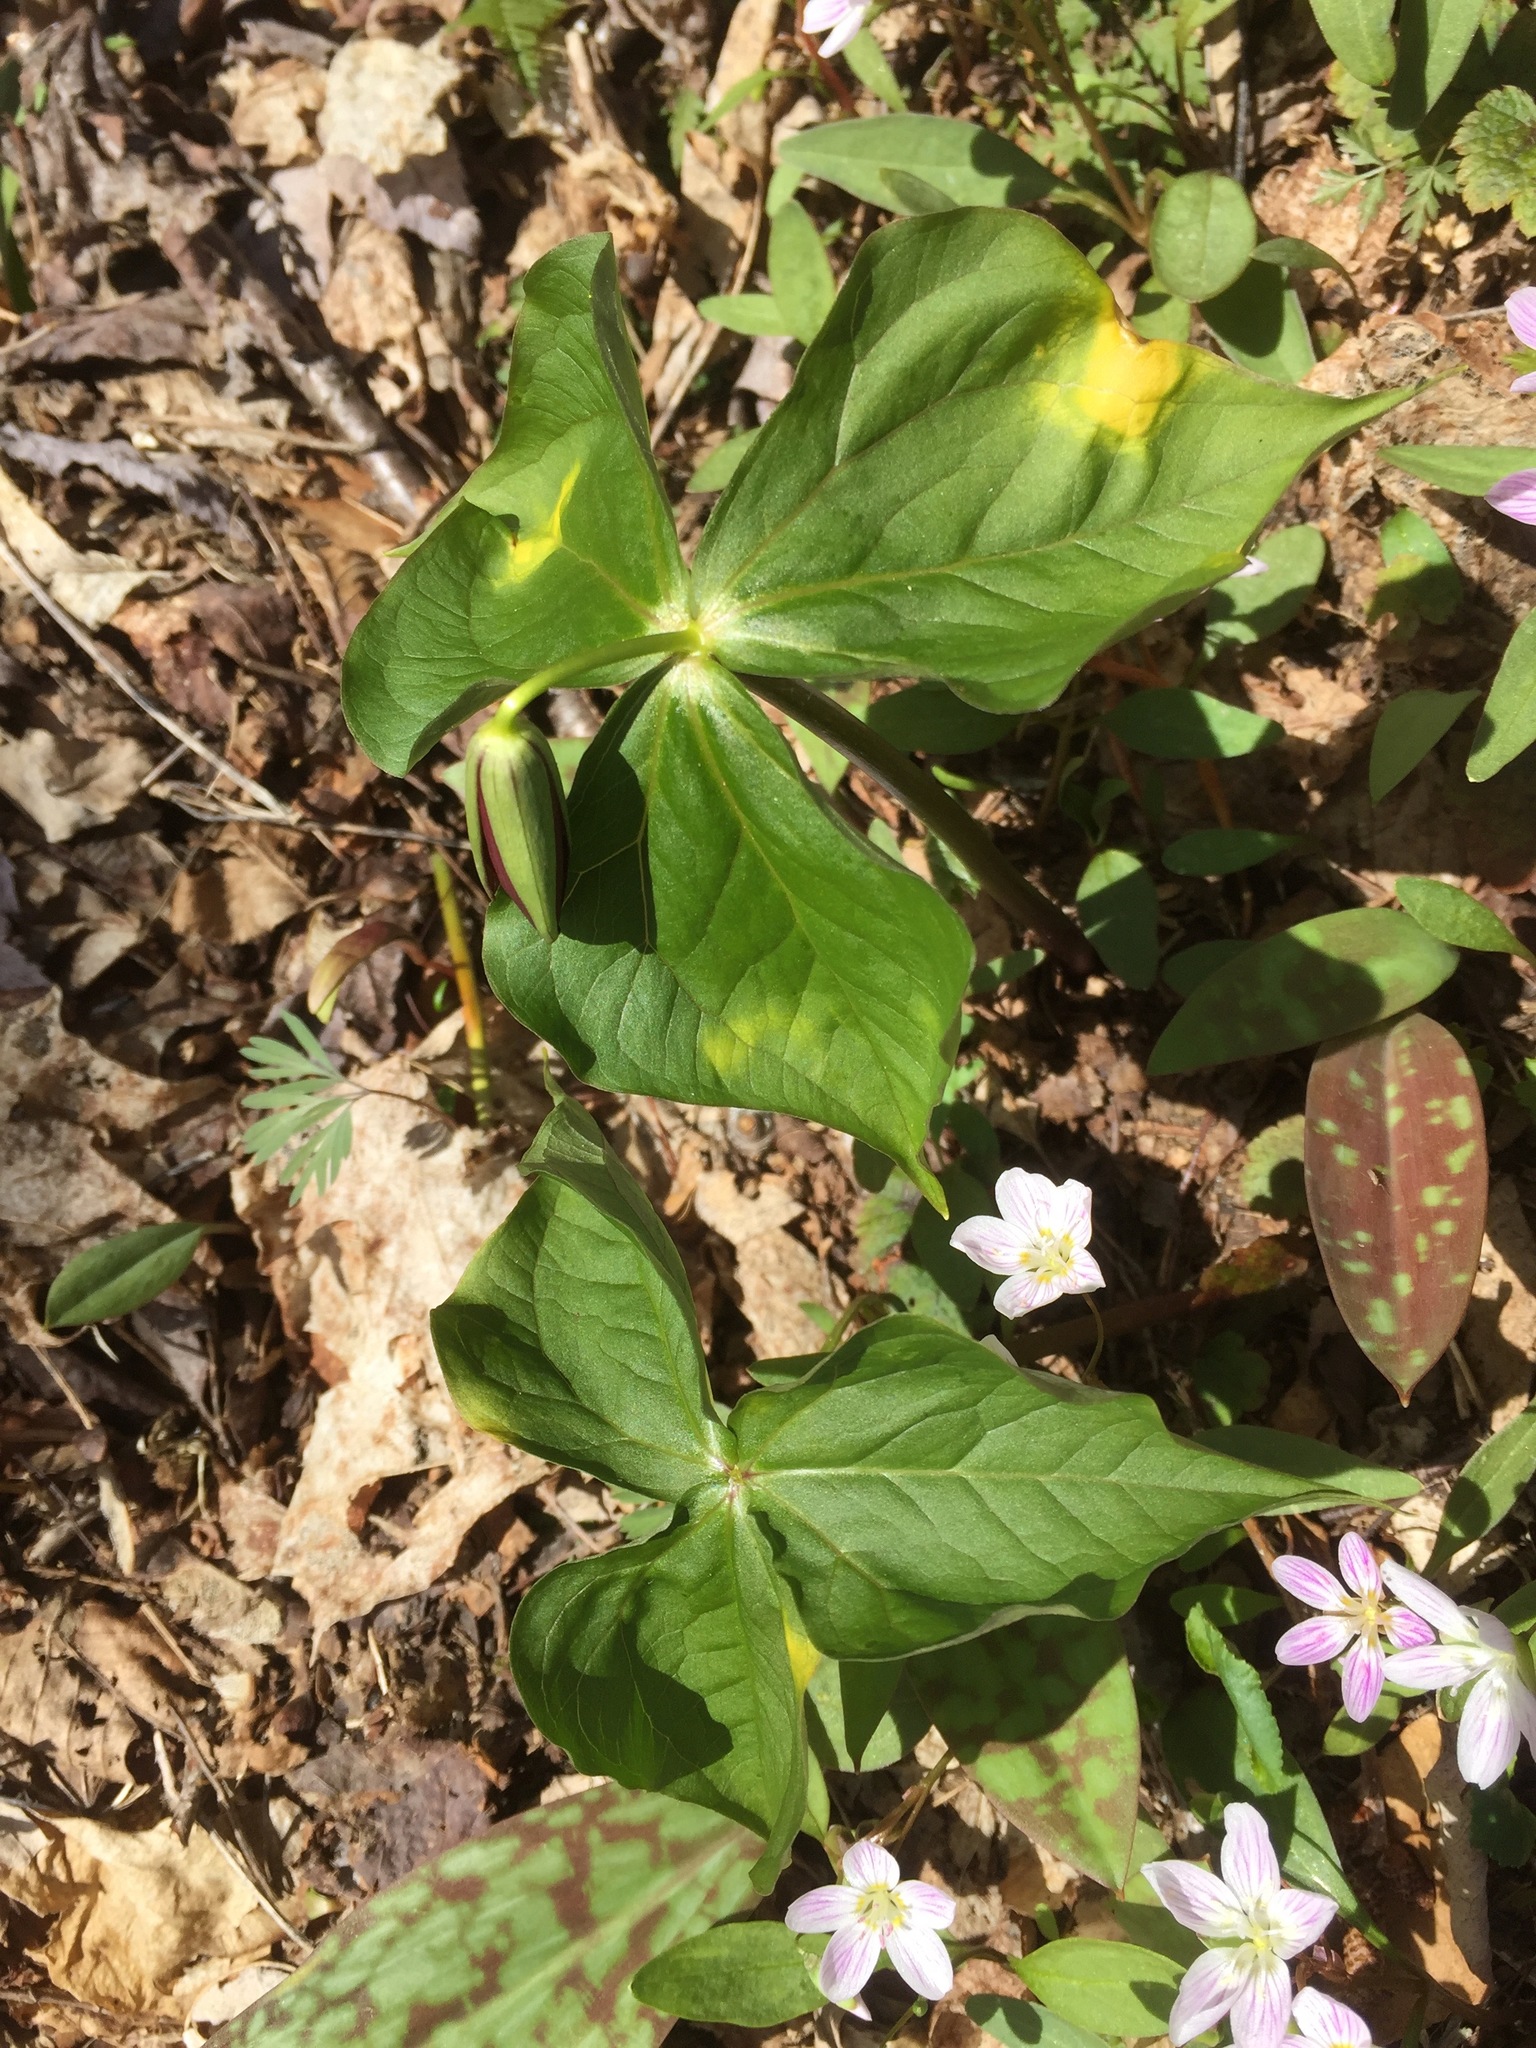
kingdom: Plantae
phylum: Tracheophyta
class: Liliopsida
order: Liliales
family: Melanthiaceae
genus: Trillium
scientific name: Trillium erectum
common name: Purple trillium
